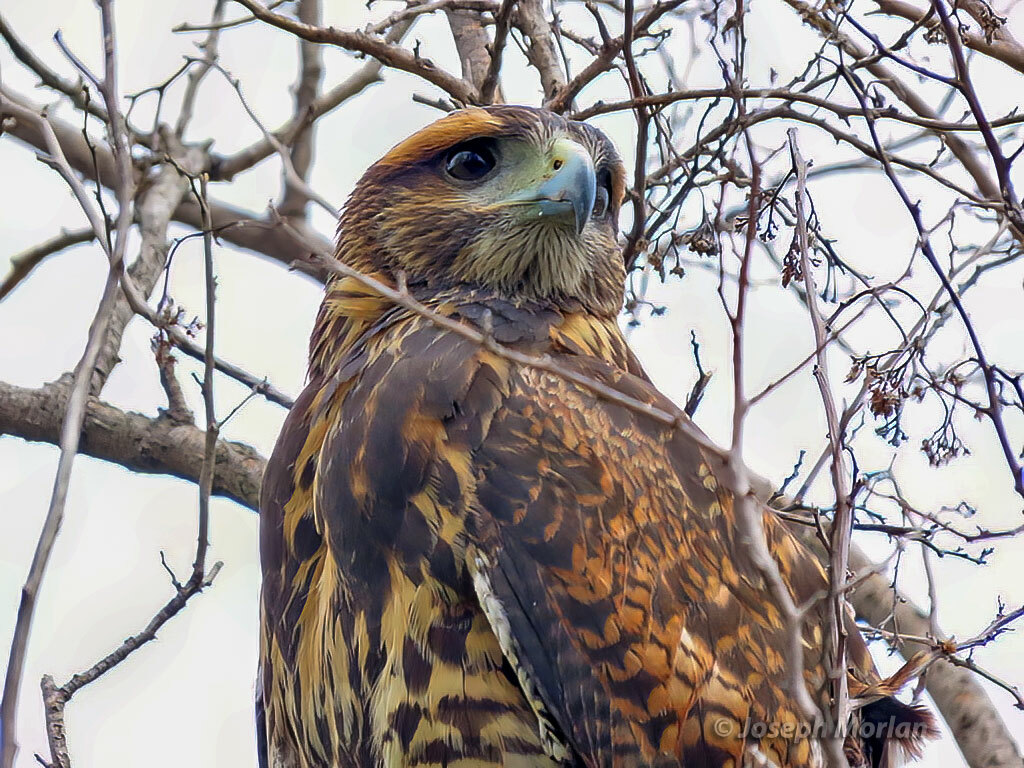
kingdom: Animalia
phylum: Chordata
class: Aves
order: Accipitriformes
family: Accipitridae
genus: Parabuteo
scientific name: Parabuteo unicinctus
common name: Harris's hawk
